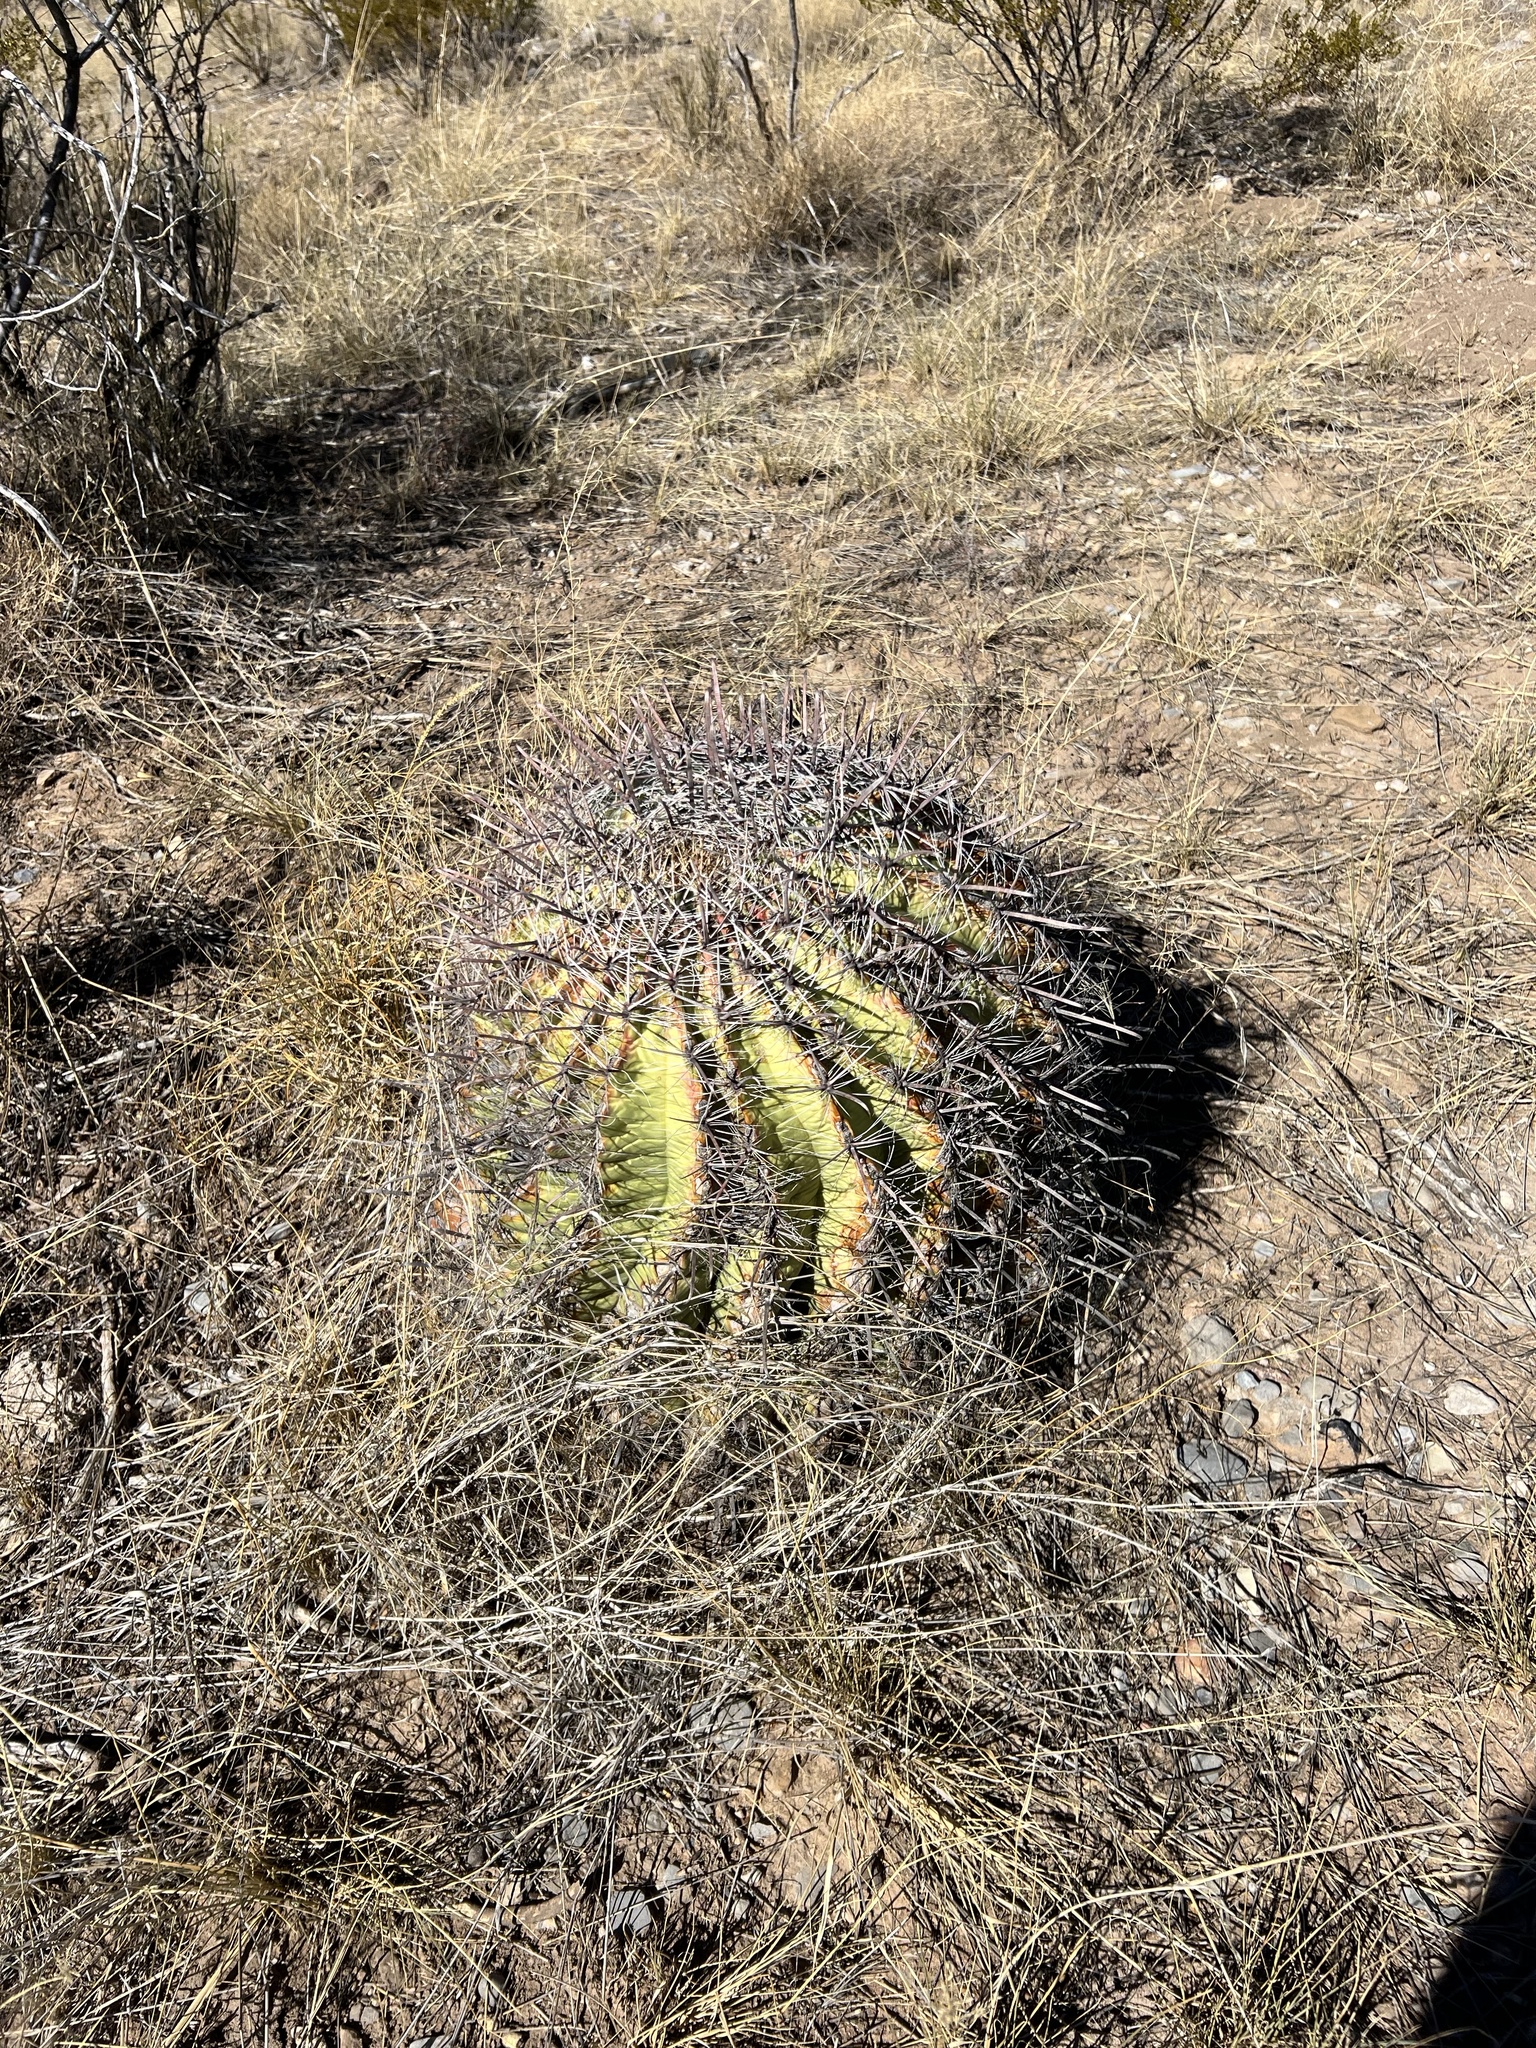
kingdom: Plantae
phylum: Tracheophyta
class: Magnoliopsida
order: Caryophyllales
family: Cactaceae
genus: Ferocactus
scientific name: Ferocactus wislizeni
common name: Candy barrel cactus
